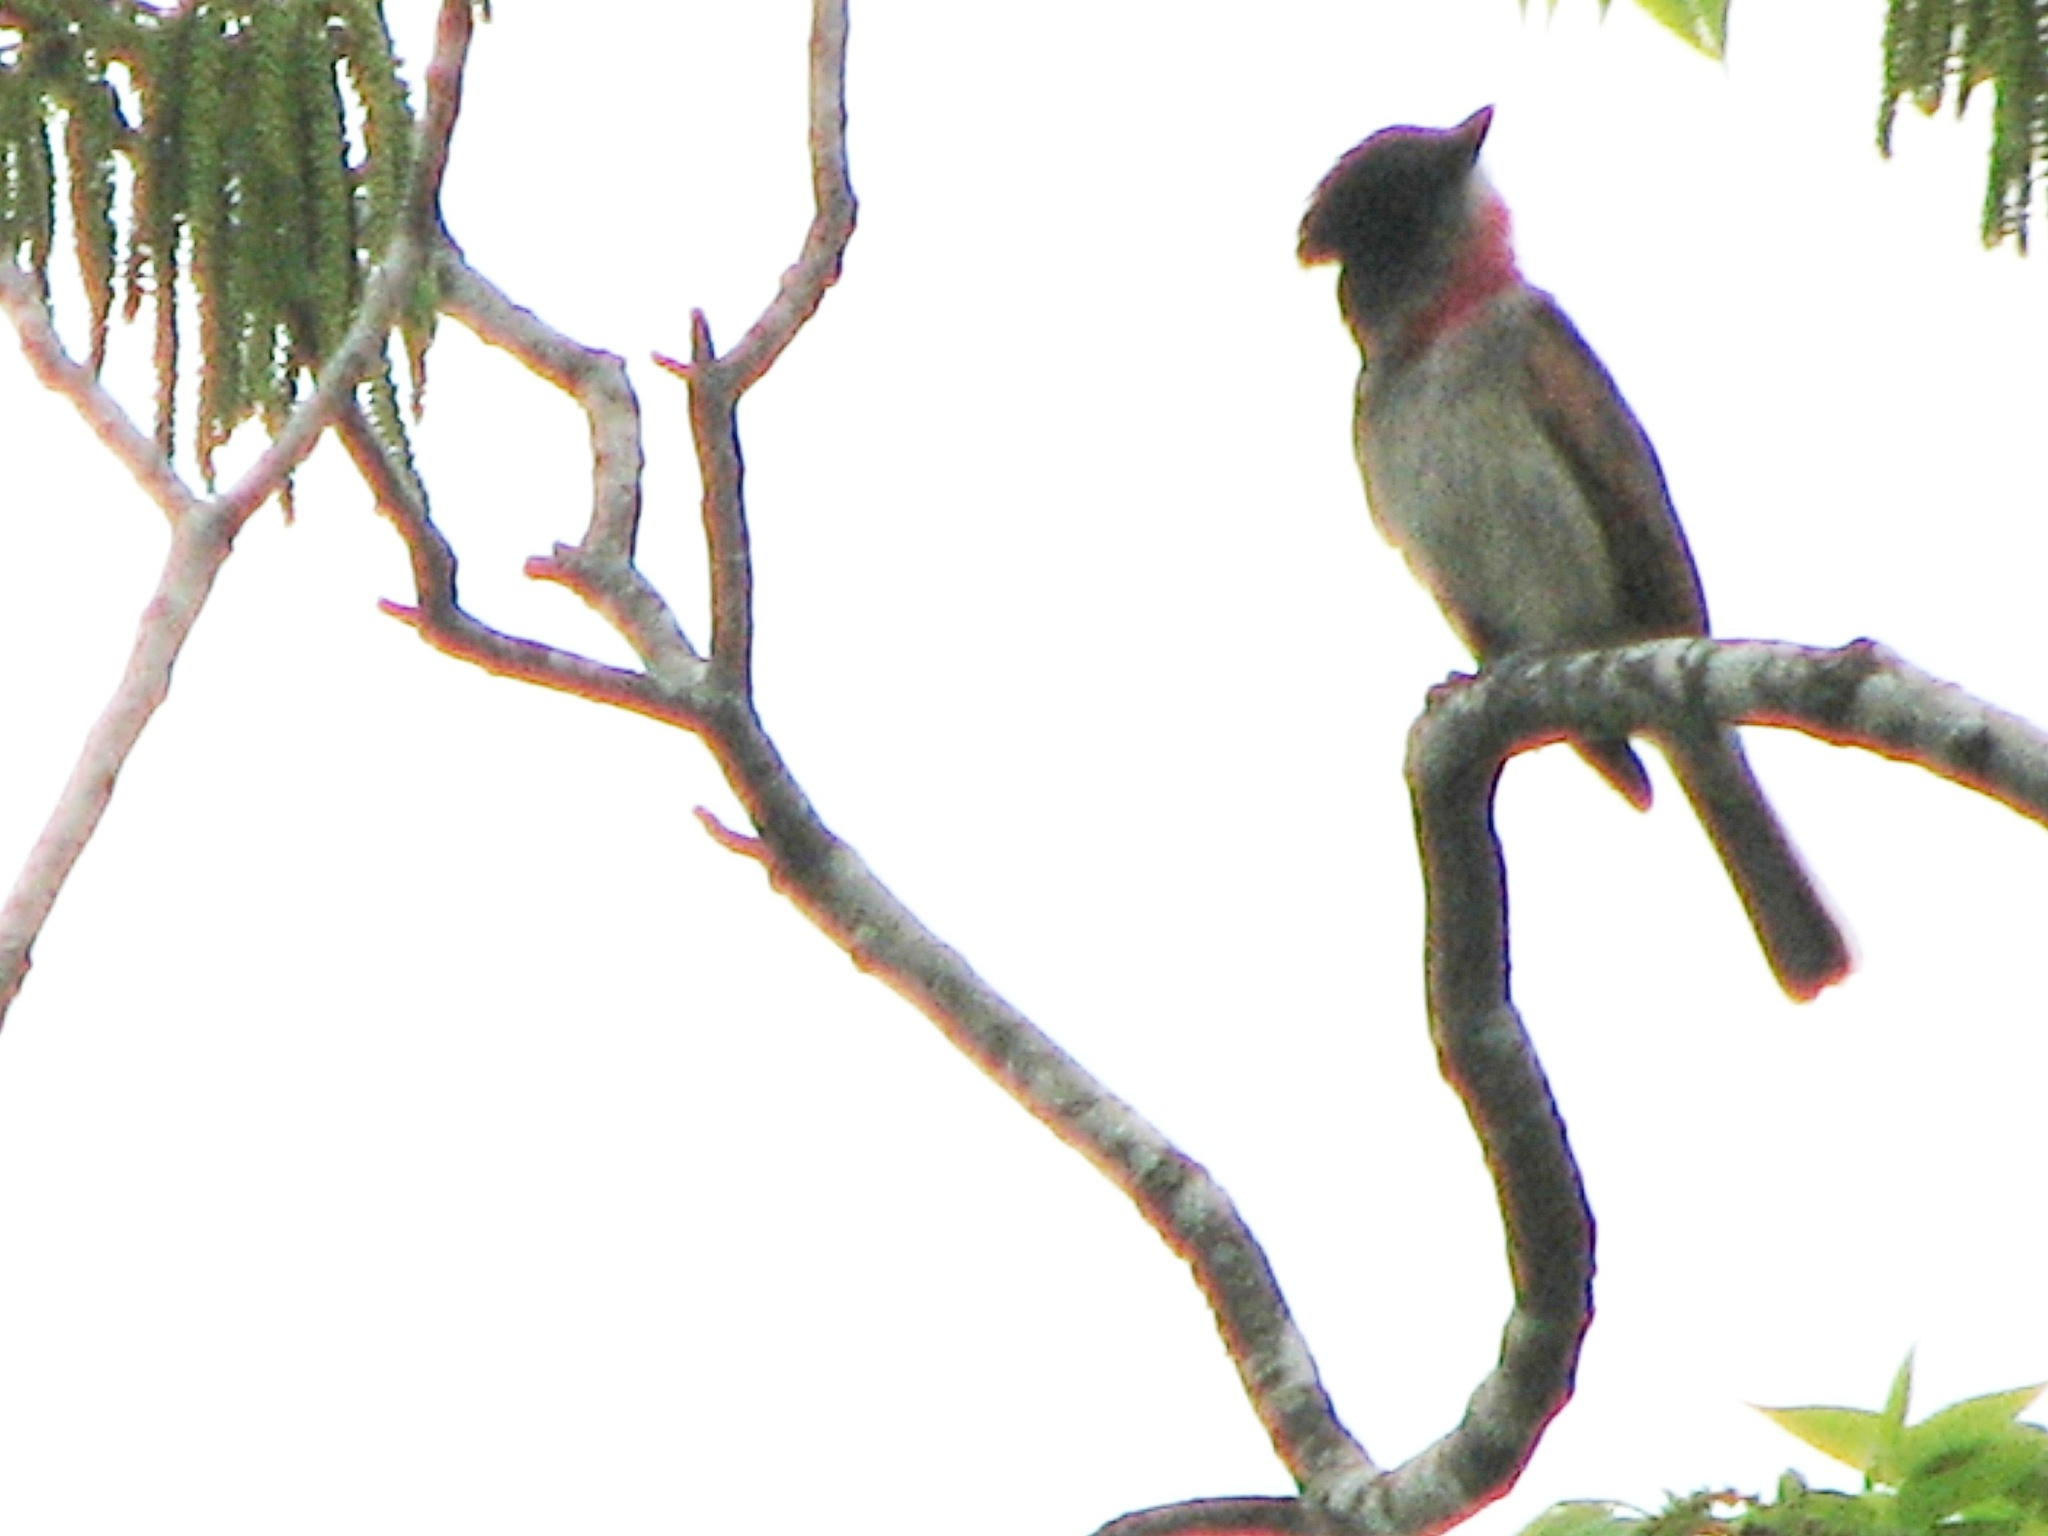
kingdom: Animalia
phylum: Chordata
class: Aves
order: Passeriformes
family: Cotingidae
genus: Pachyramphus
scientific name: Pachyramphus aglaiae
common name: Rose-throated becard
